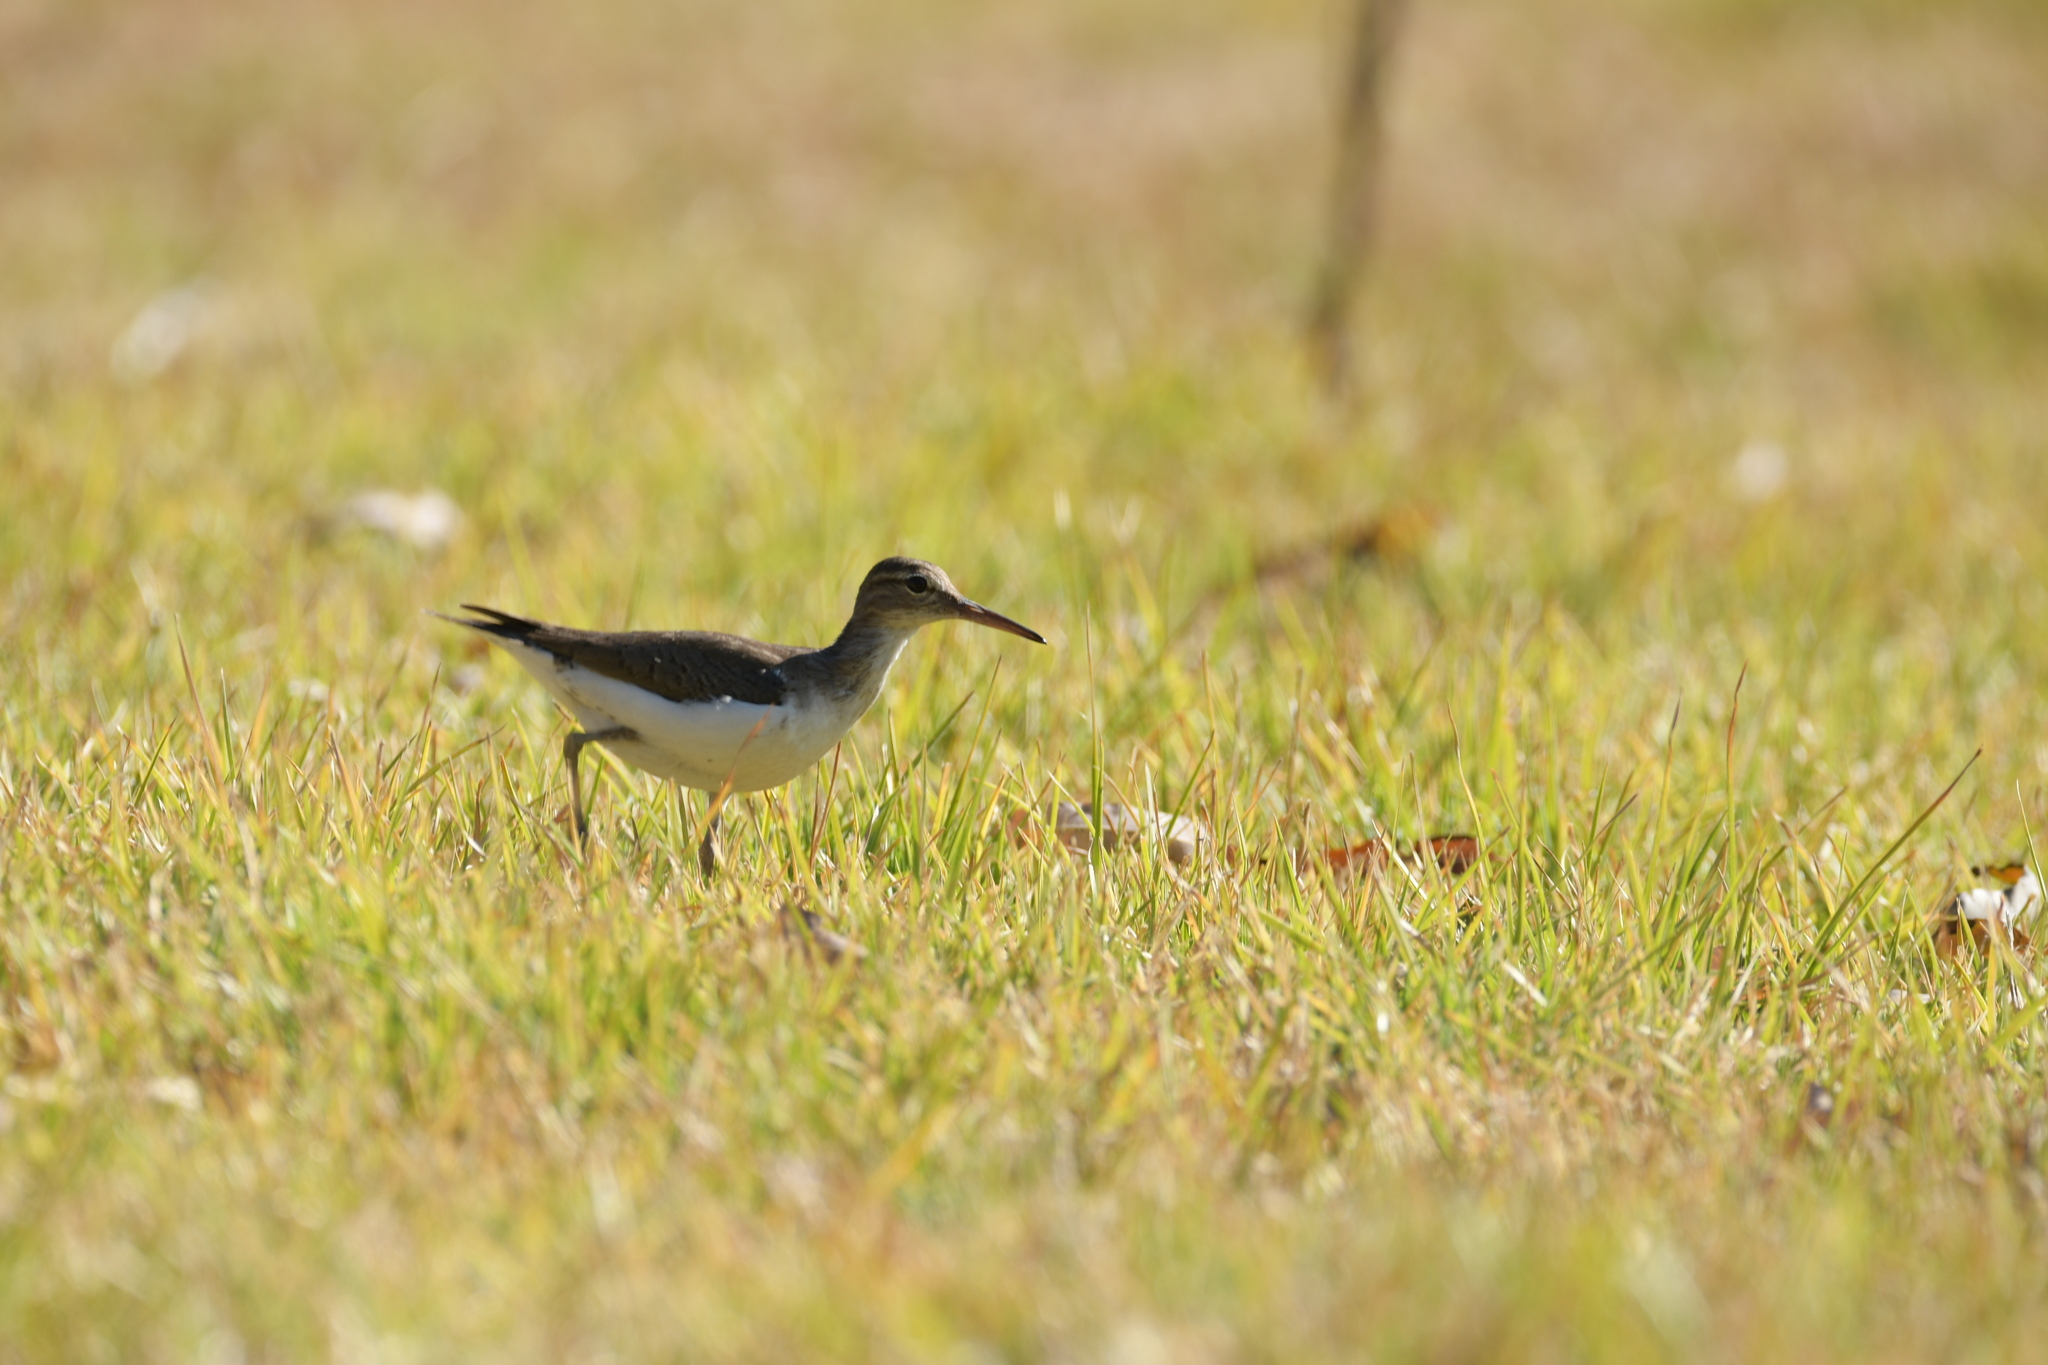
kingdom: Animalia
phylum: Chordata
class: Aves
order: Charadriiformes
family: Scolopacidae
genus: Actitis
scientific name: Actitis macularius
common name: Spotted sandpiper
